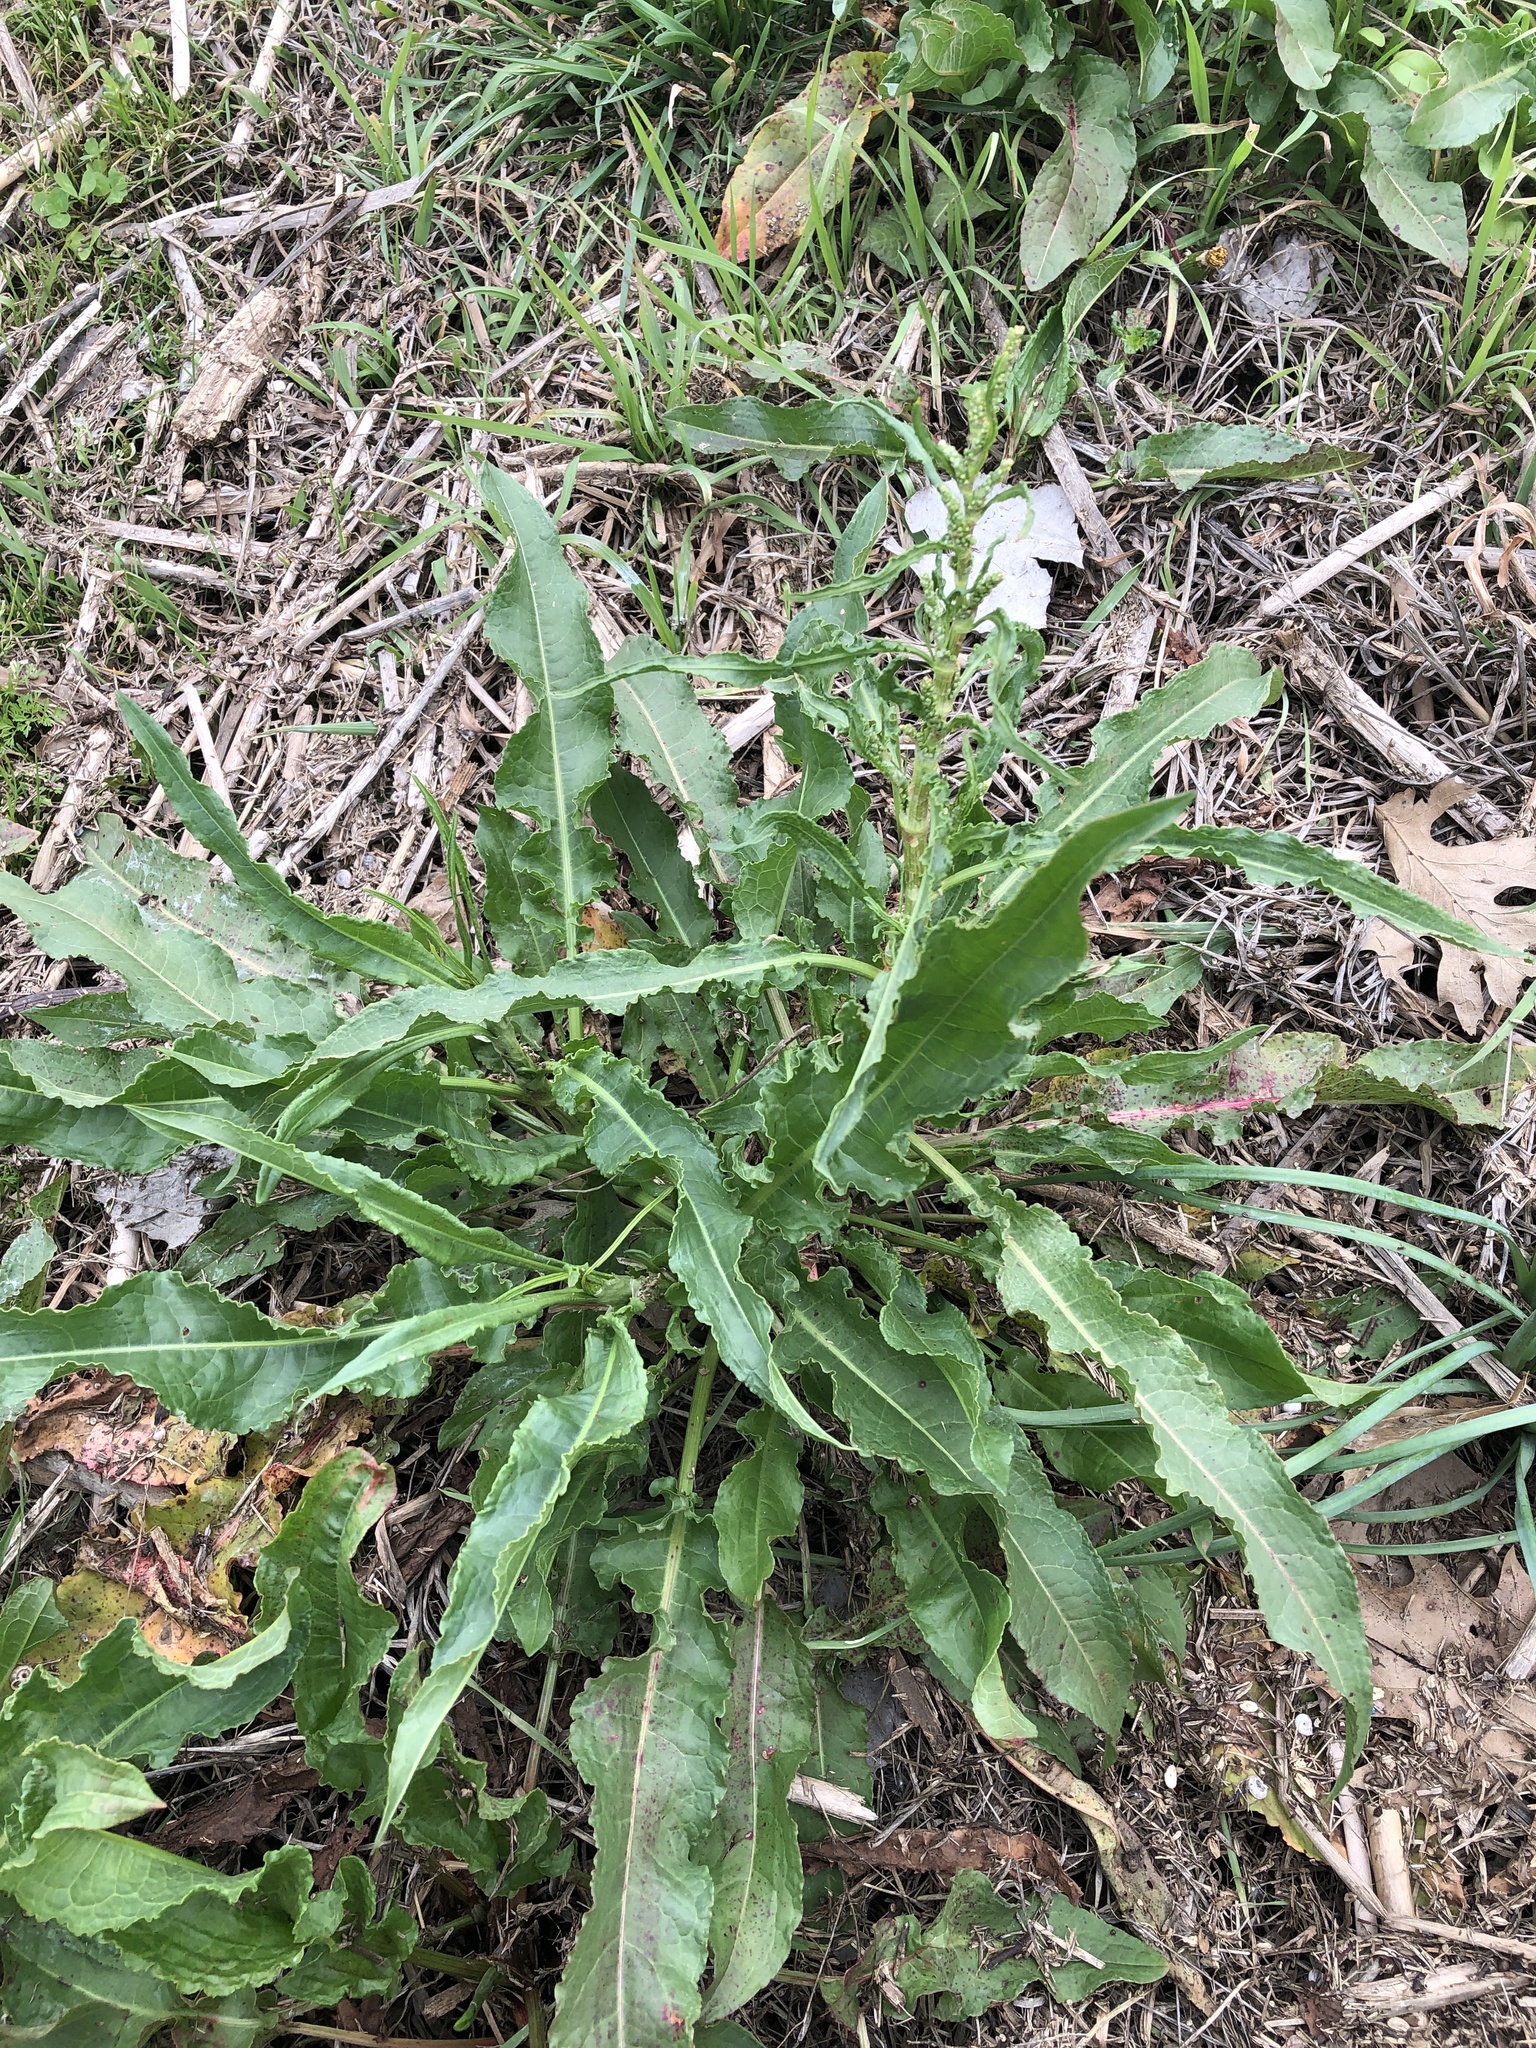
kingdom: Plantae
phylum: Tracheophyta
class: Magnoliopsida
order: Caryophyllales
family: Polygonaceae
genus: Rumex
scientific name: Rumex crispus
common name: Curled dock
